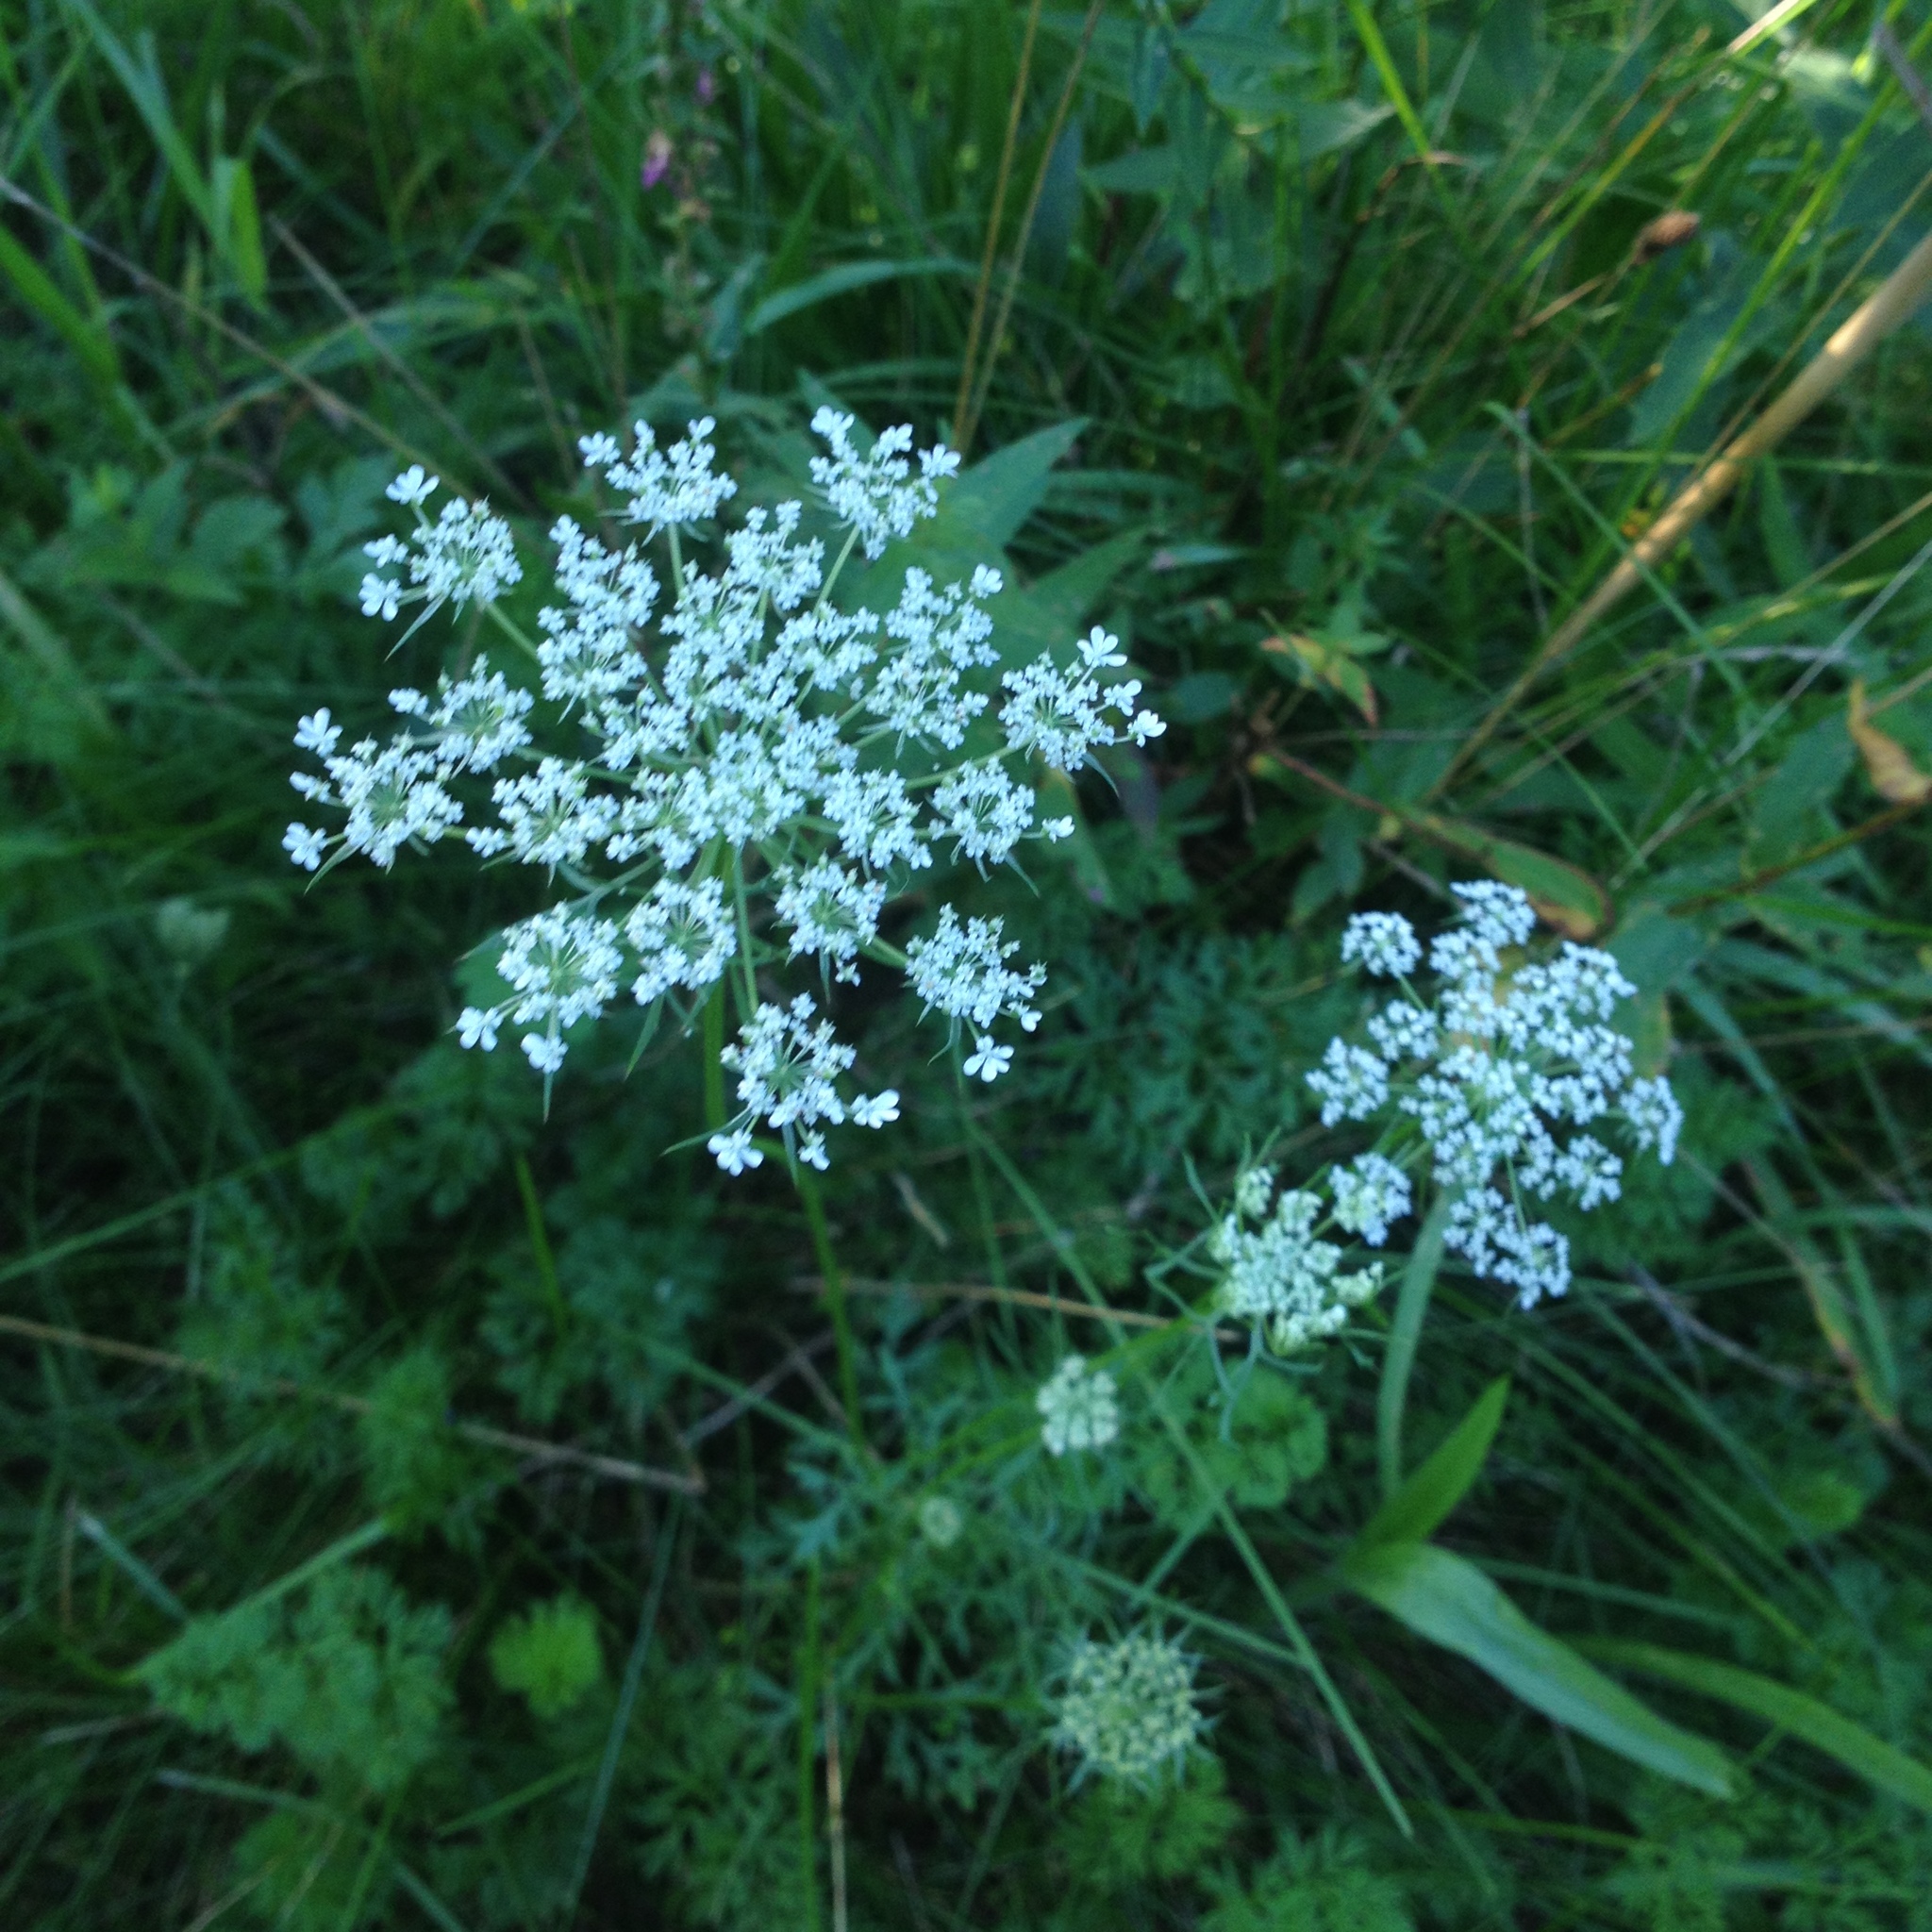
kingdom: Plantae
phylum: Tracheophyta
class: Magnoliopsida
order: Apiales
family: Apiaceae
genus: Daucus
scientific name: Daucus carota
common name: Wild carrot
